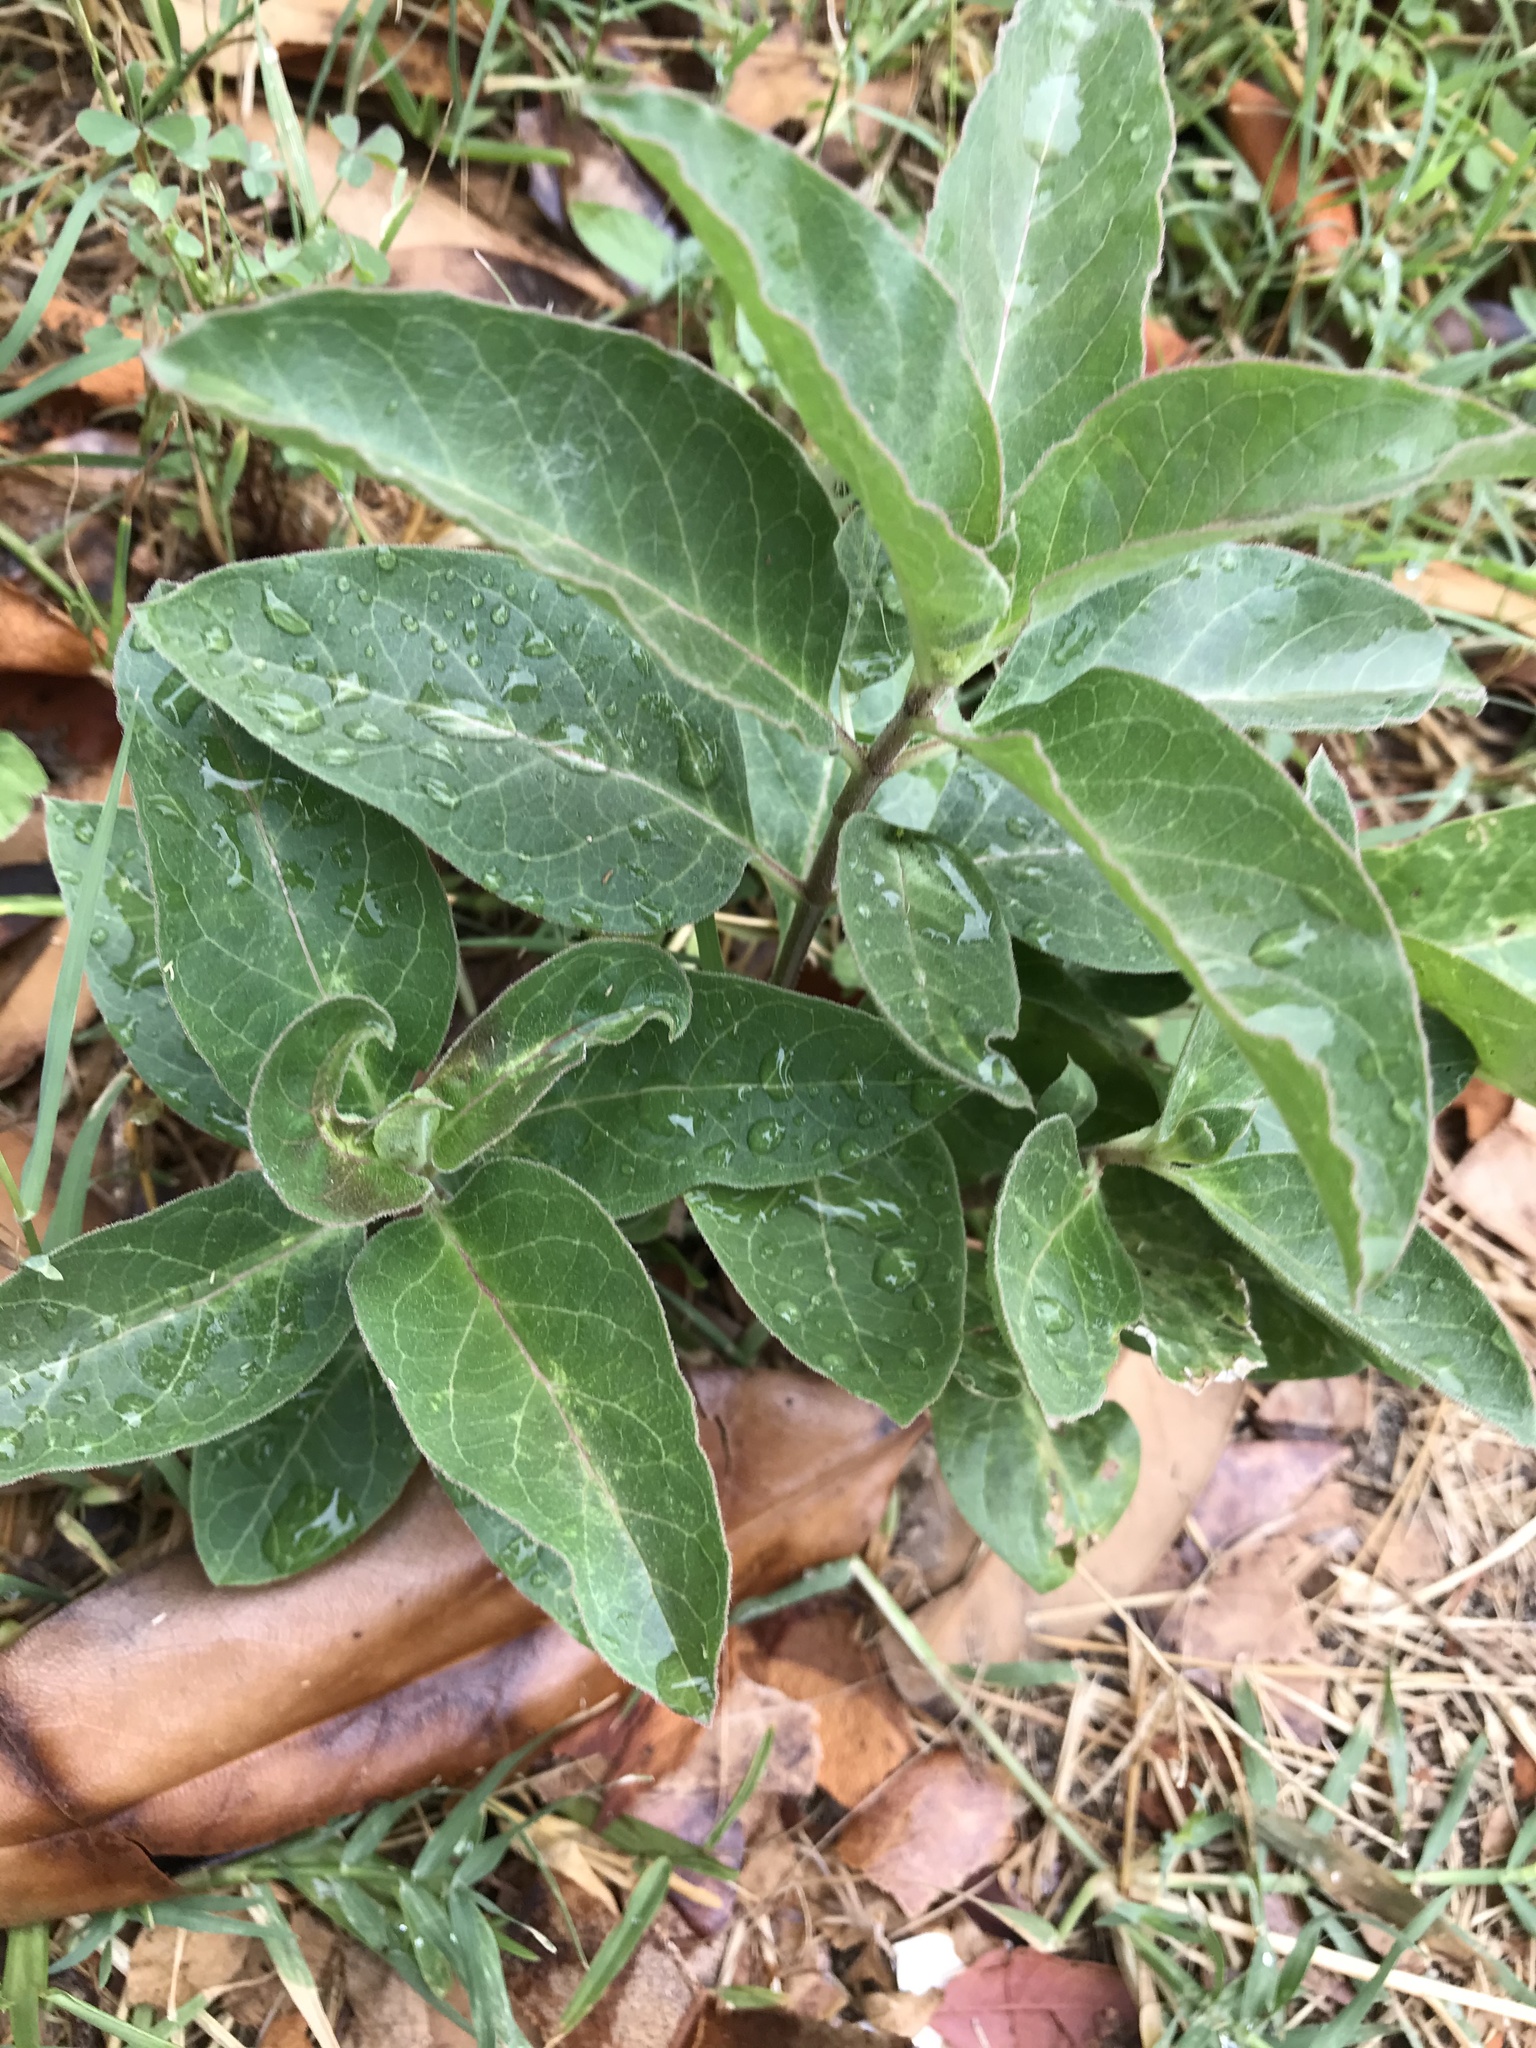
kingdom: Plantae
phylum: Tracheophyta
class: Magnoliopsida
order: Gentianales
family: Apocynaceae
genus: Asclepias
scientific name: Asclepias oenotheroides
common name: Zizotes milkweed
